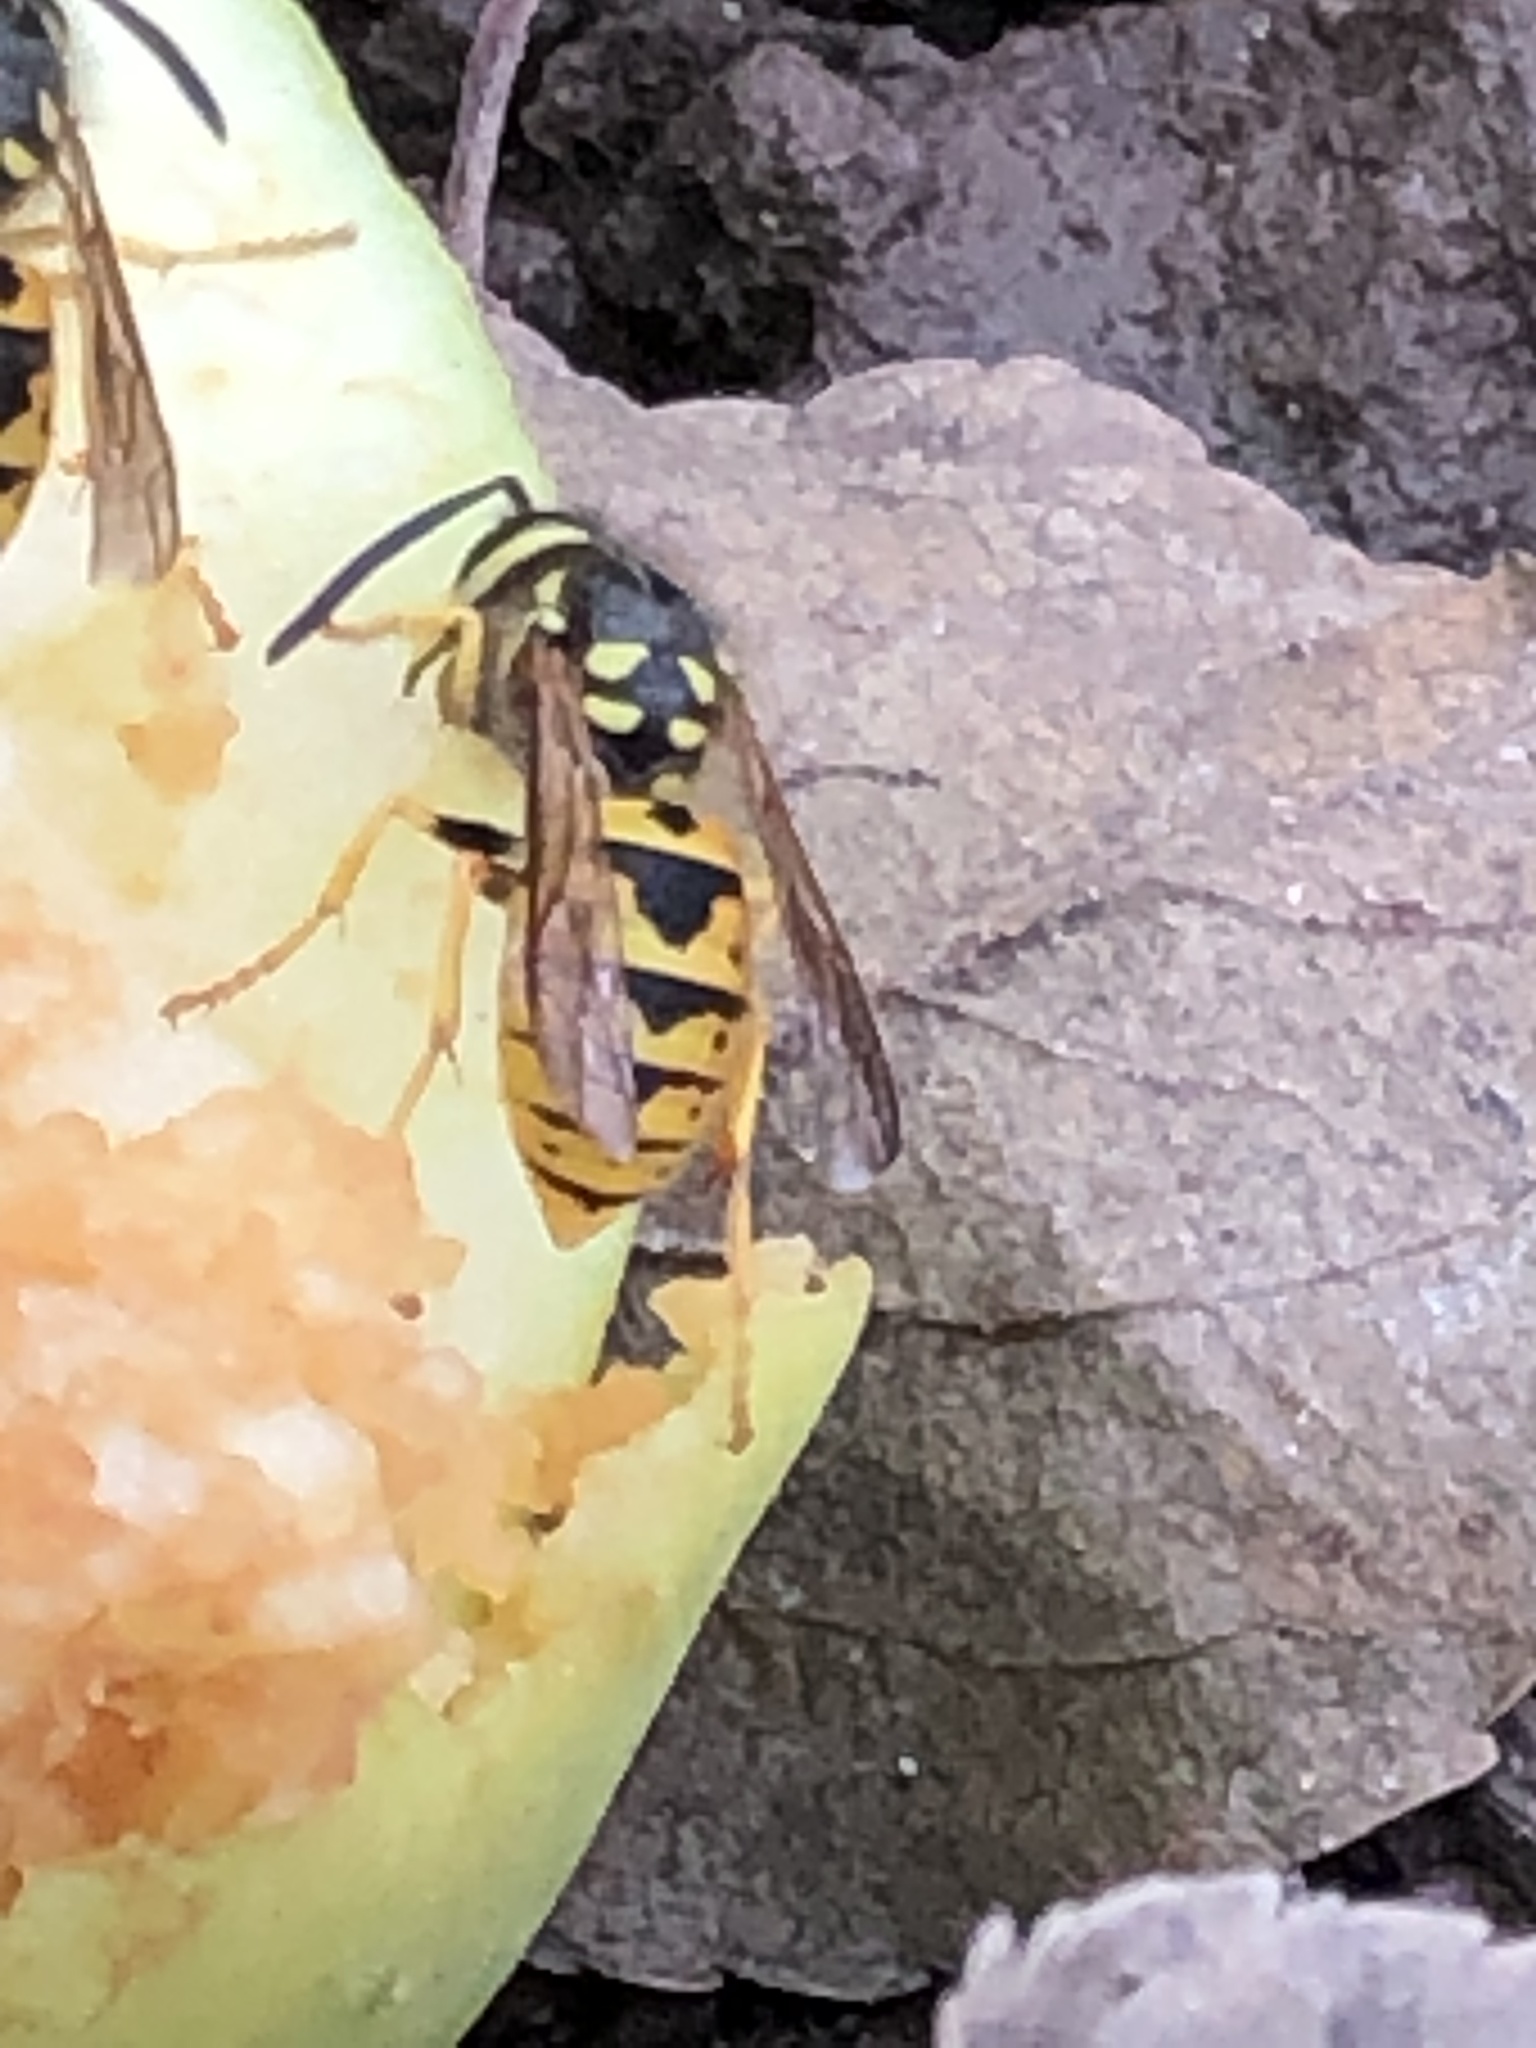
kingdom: Animalia
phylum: Arthropoda
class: Insecta
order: Hymenoptera
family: Vespidae
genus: Vespula
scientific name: Vespula germanica
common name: German wasp
